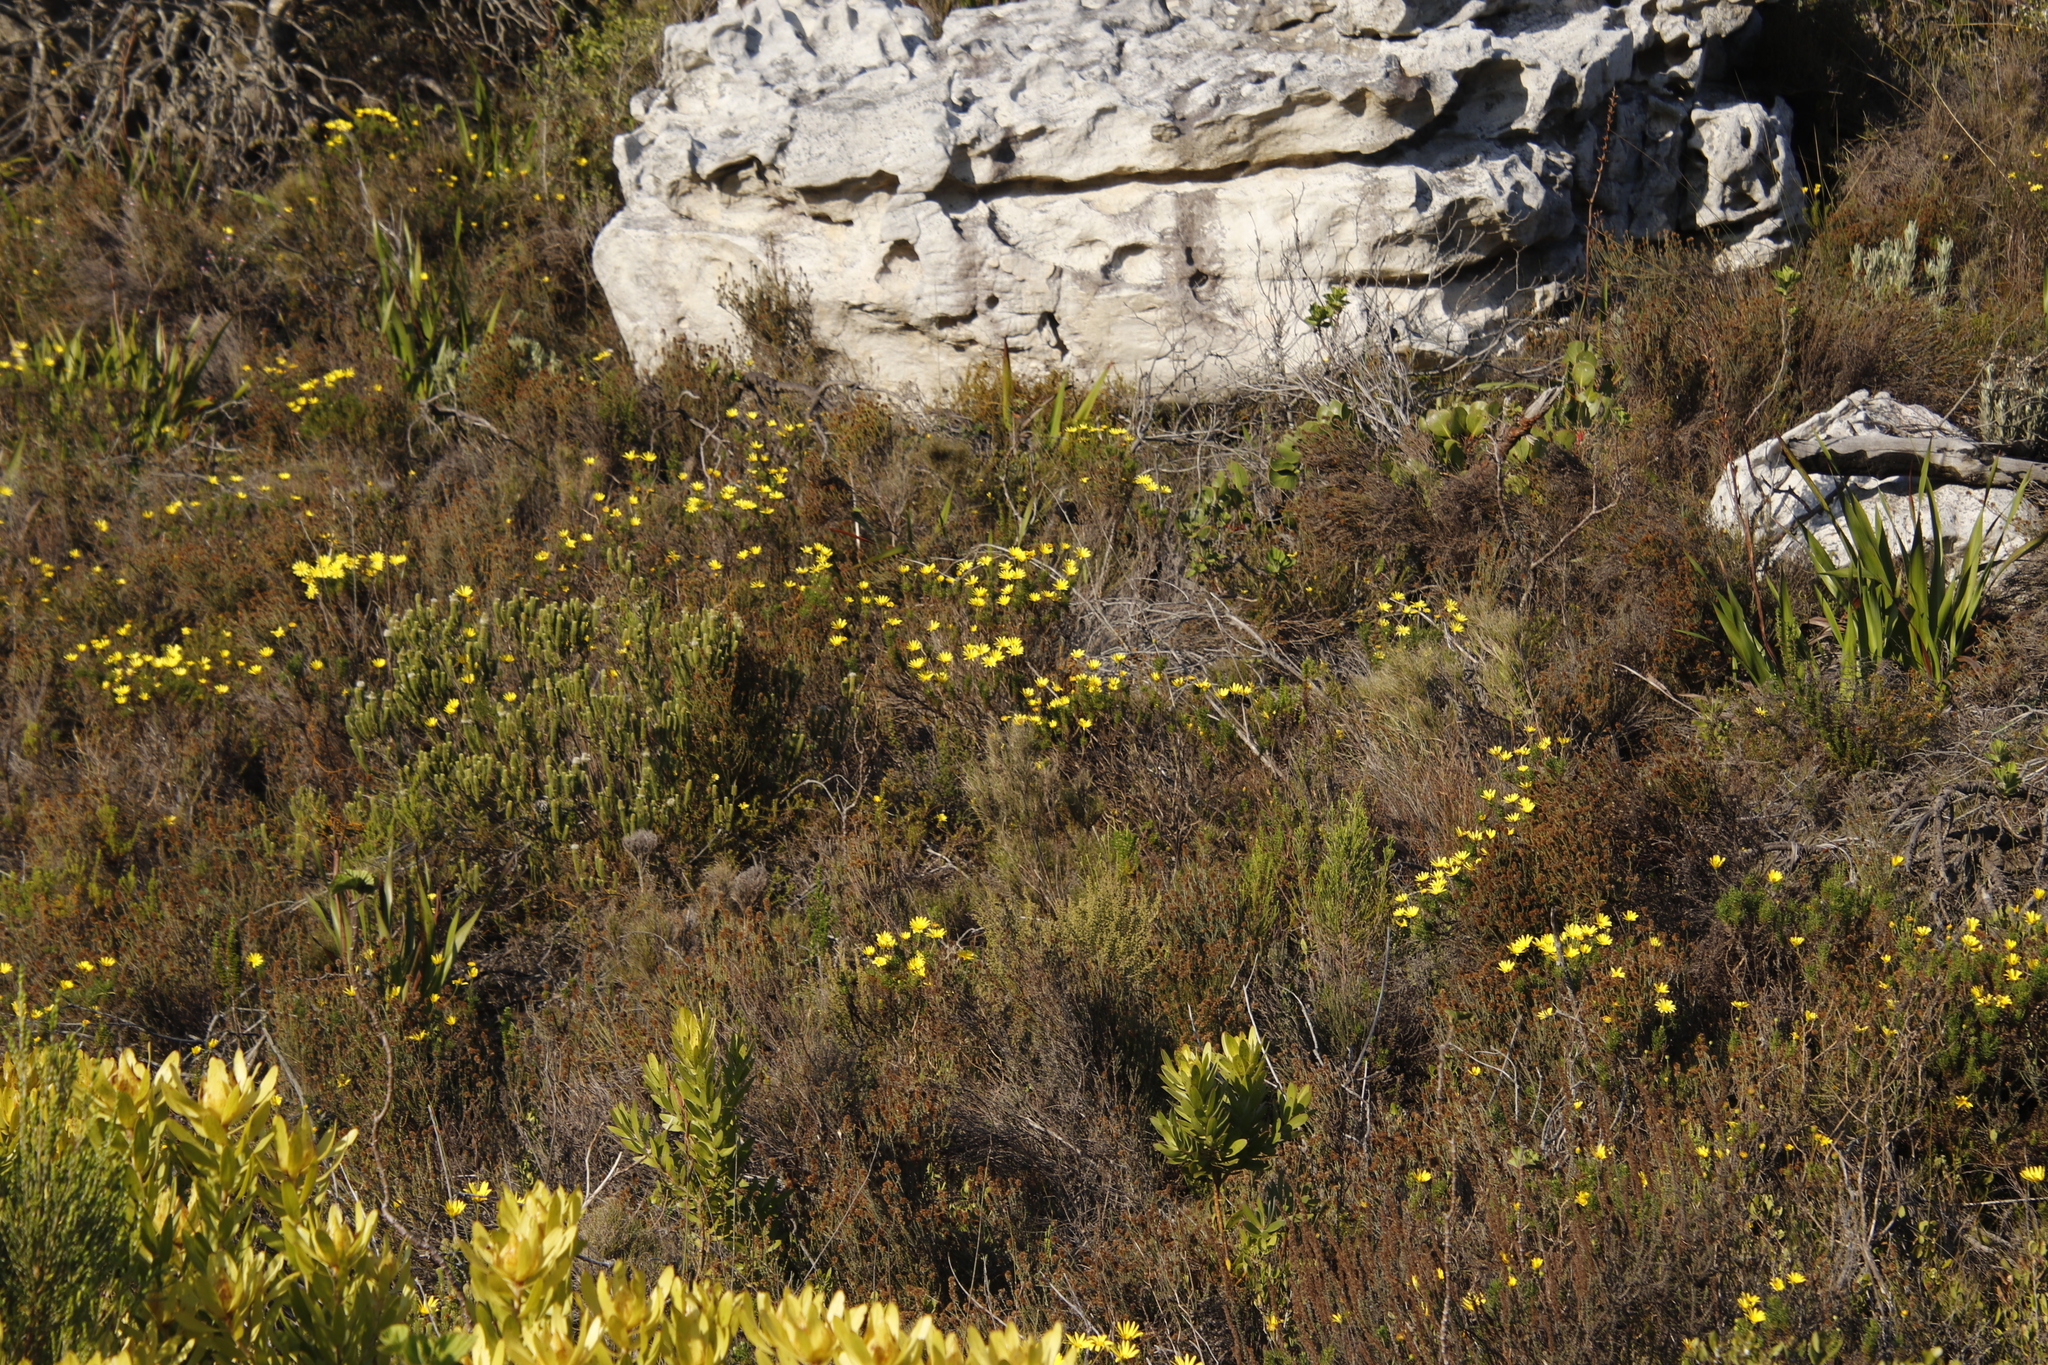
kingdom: Plantae
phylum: Tracheophyta
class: Magnoliopsida
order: Asterales
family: Asteraceae
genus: Euryops
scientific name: Euryops abrotanifolius
